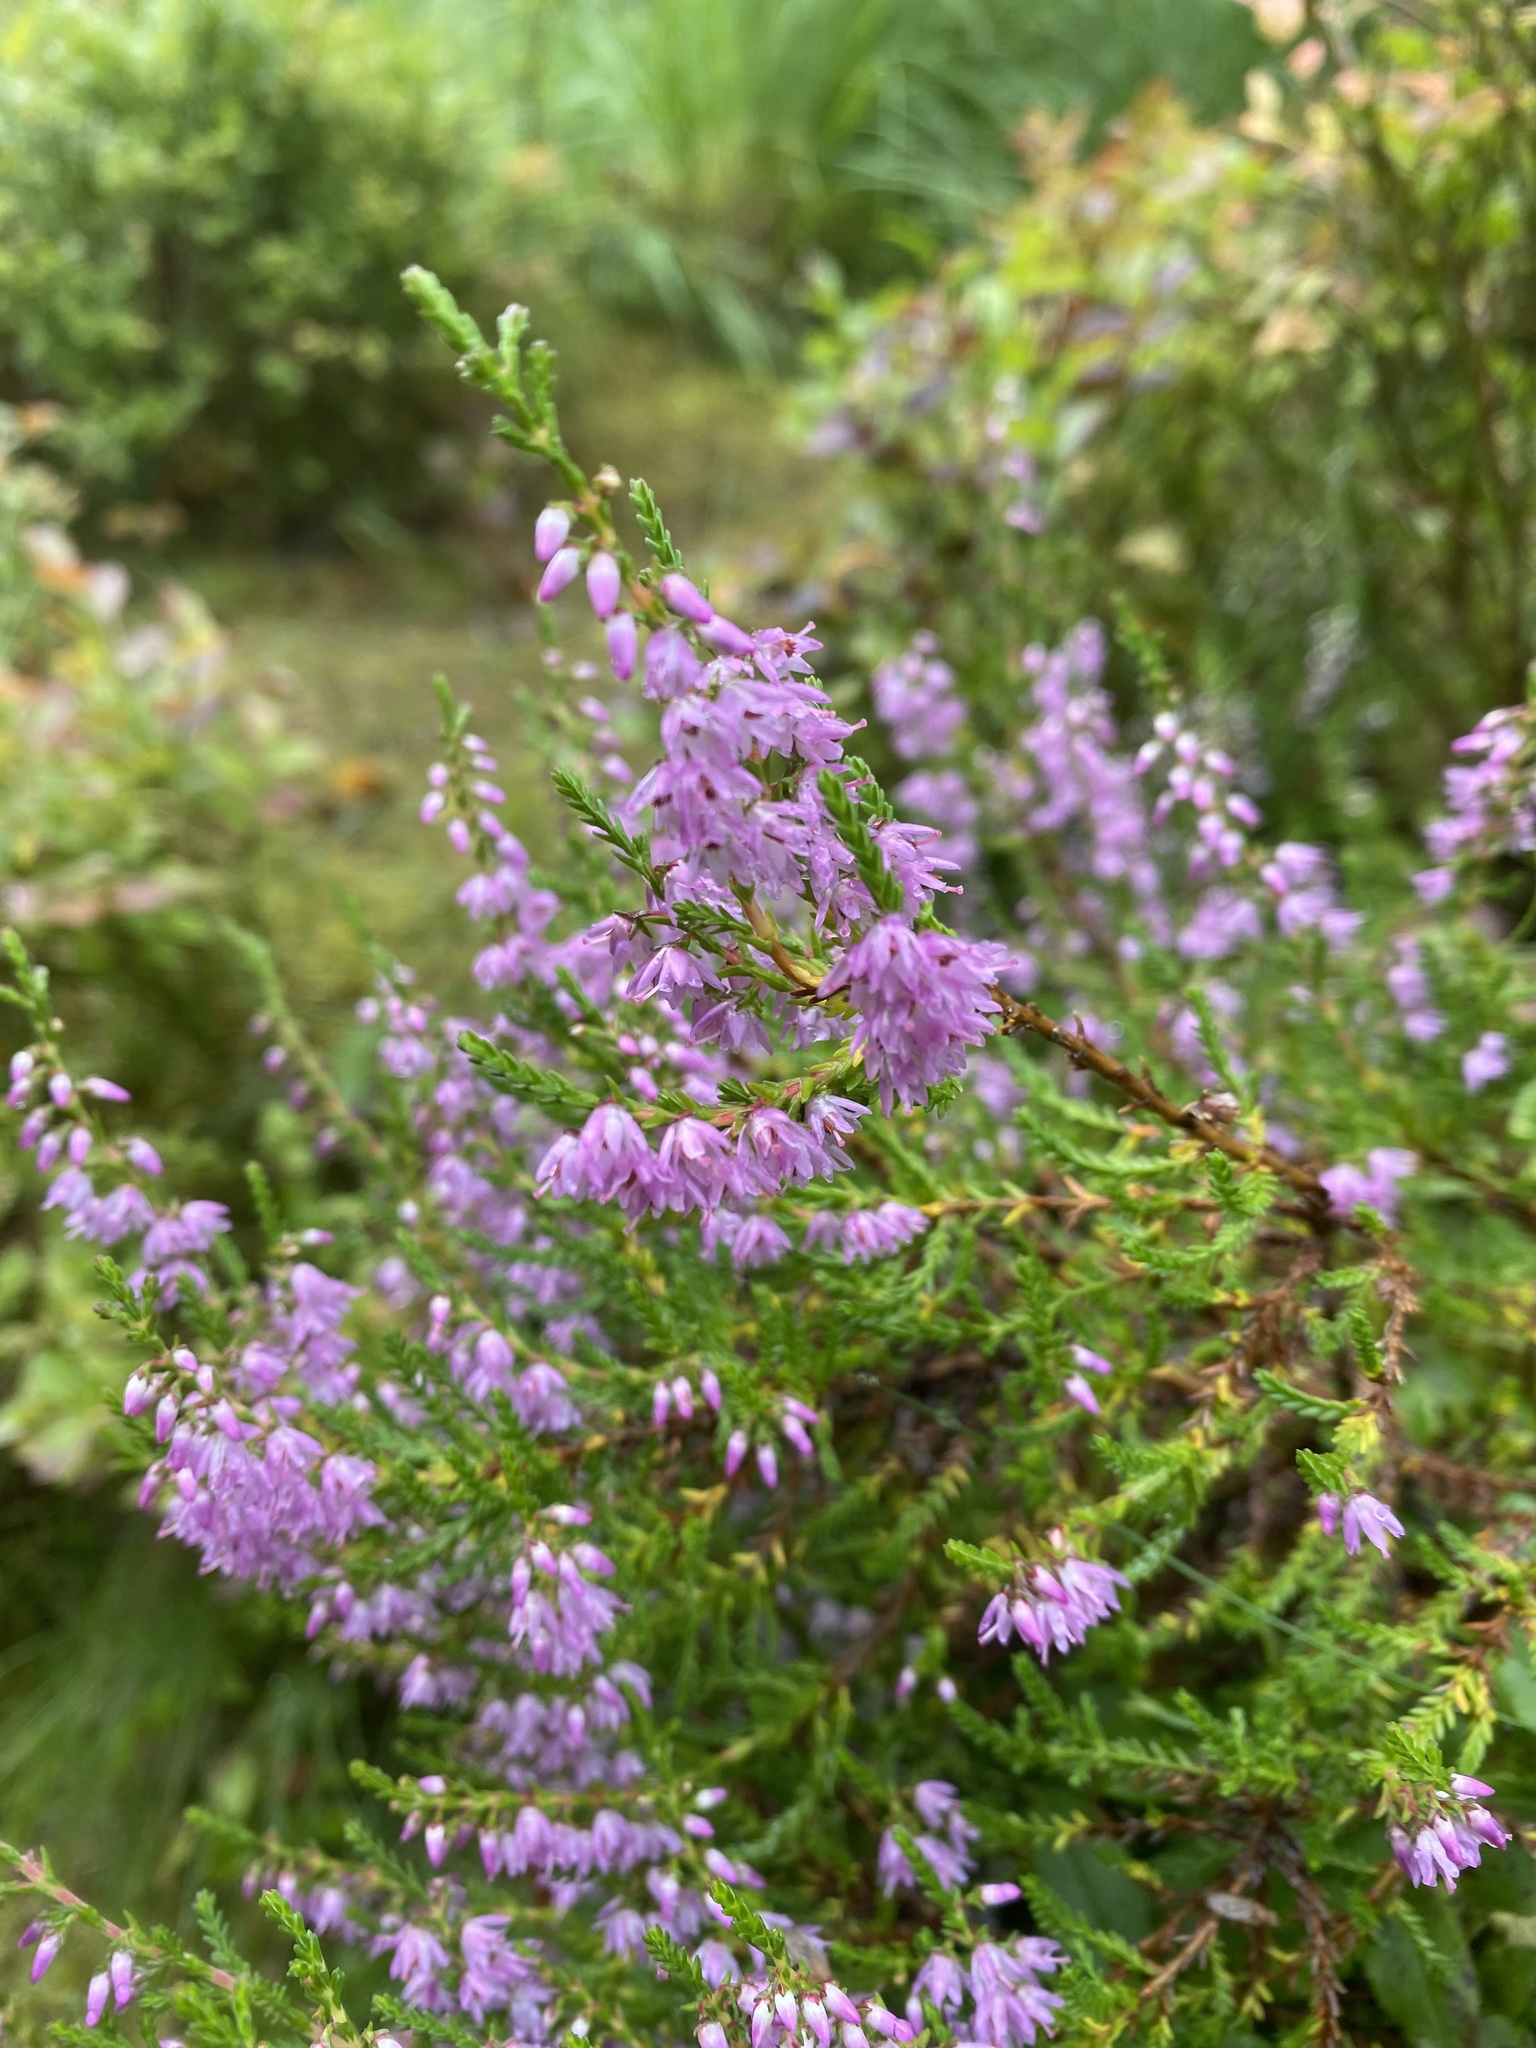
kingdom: Plantae
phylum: Tracheophyta
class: Magnoliopsida
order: Ericales
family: Ericaceae
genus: Calluna
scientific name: Calluna vulgaris
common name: Heather
